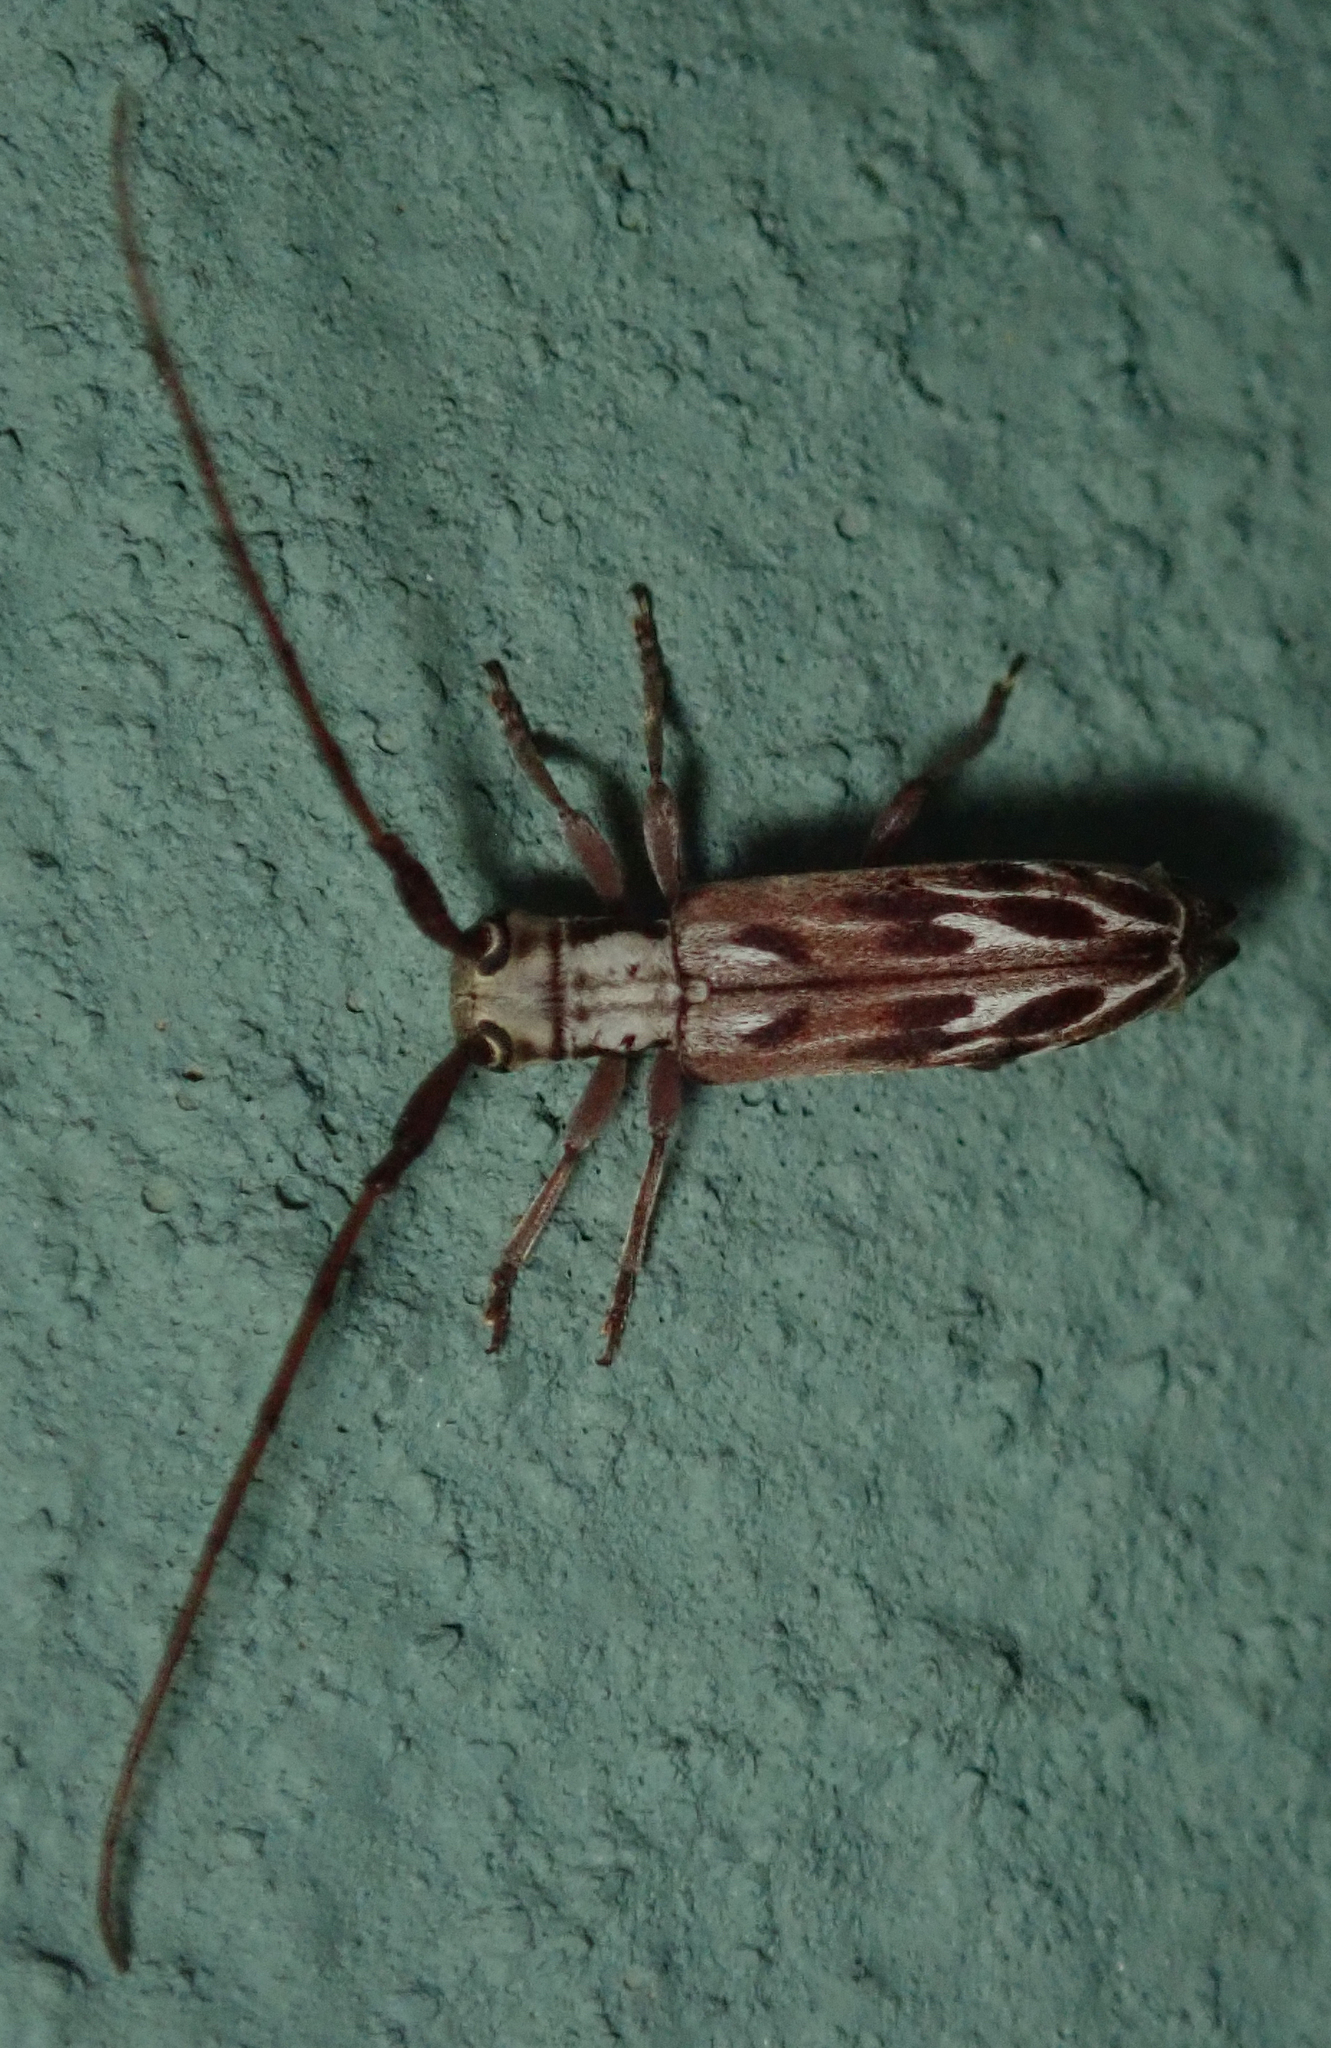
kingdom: Animalia
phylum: Arthropoda
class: Insecta
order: Coleoptera
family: Cerambycidae
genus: Eunidia
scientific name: Eunidia strigata
